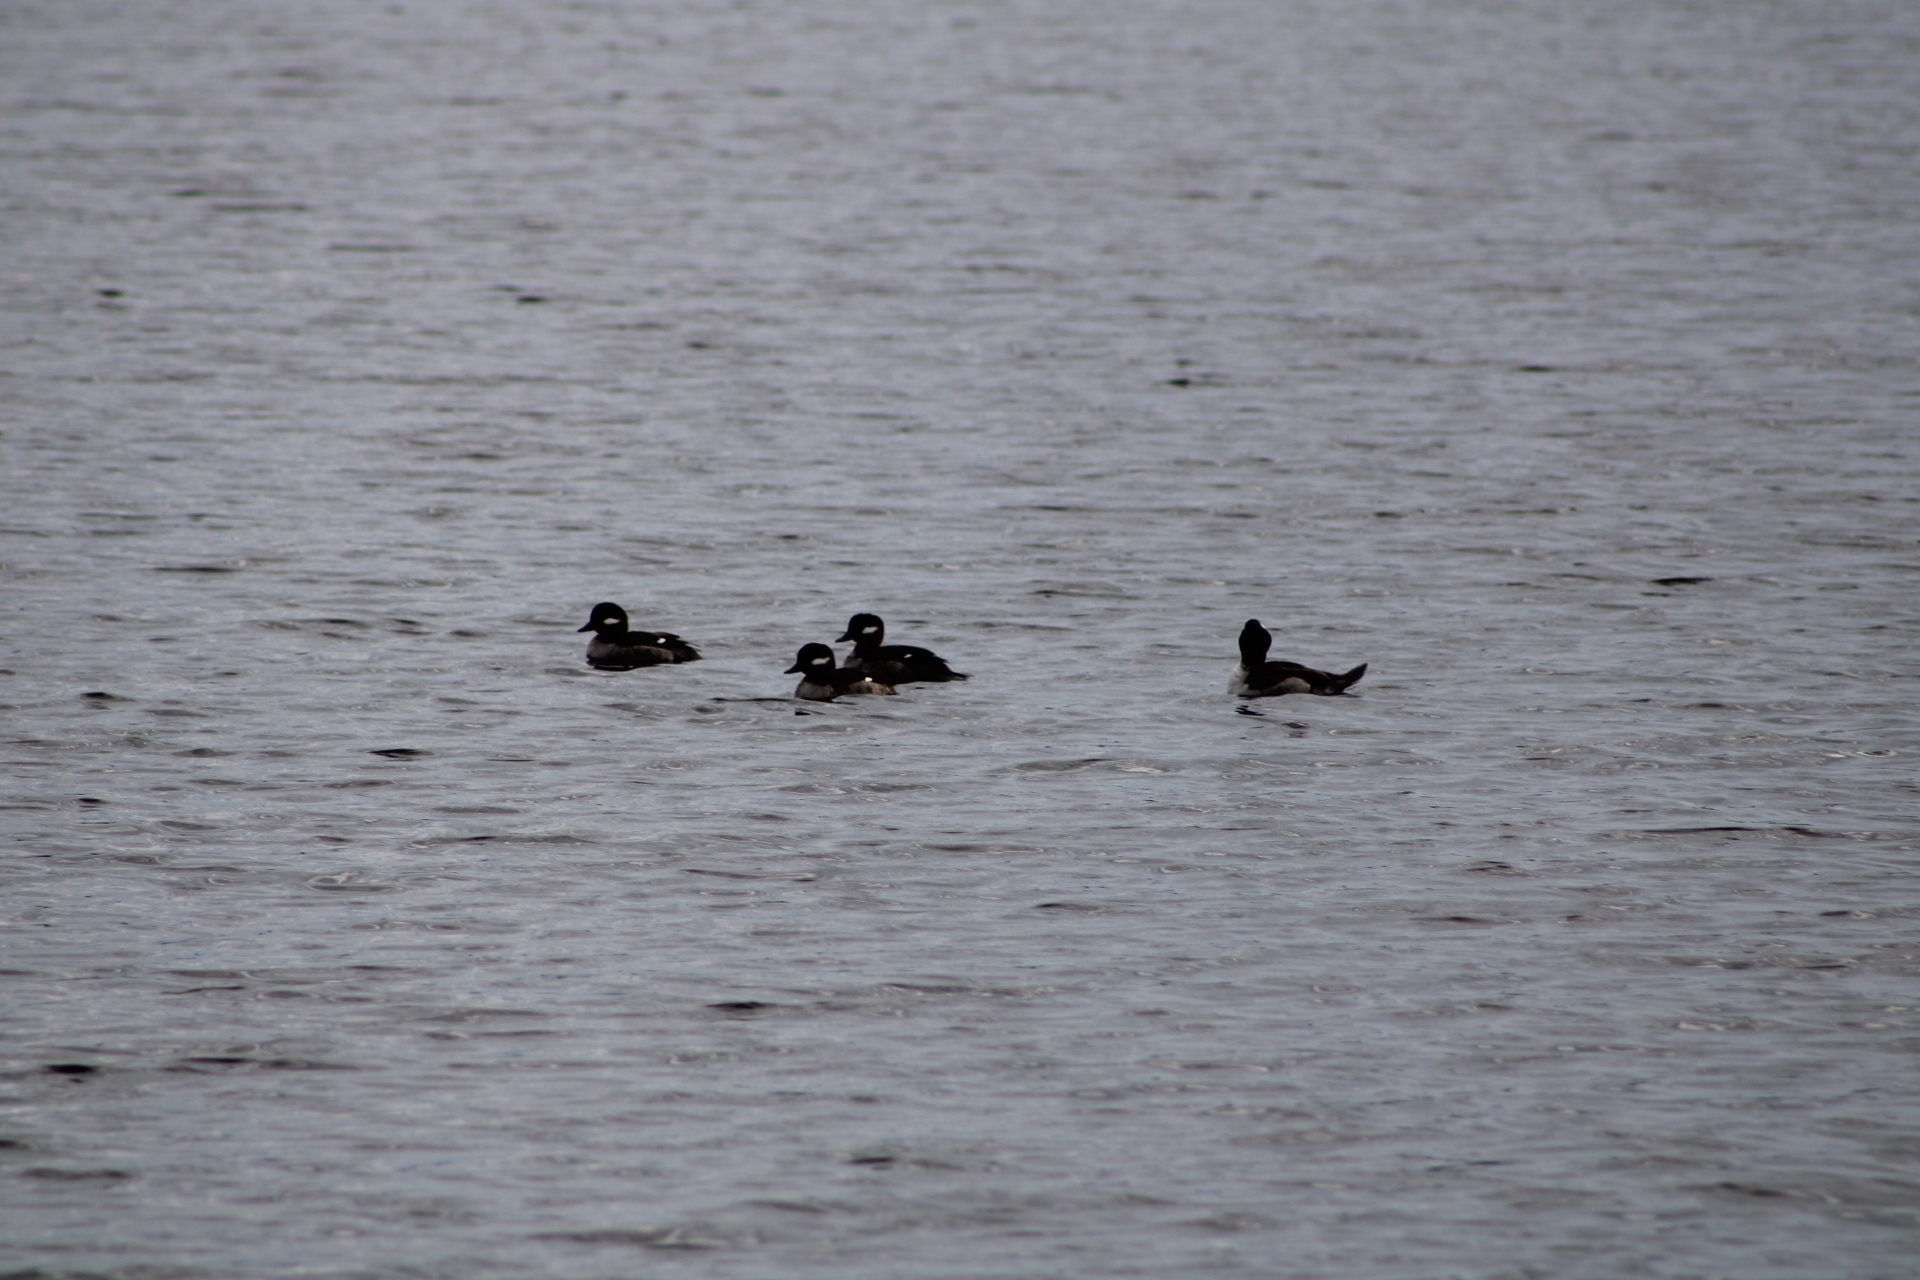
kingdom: Animalia
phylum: Chordata
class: Aves
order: Anseriformes
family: Anatidae
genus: Bucephala
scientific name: Bucephala albeola
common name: Bufflehead
